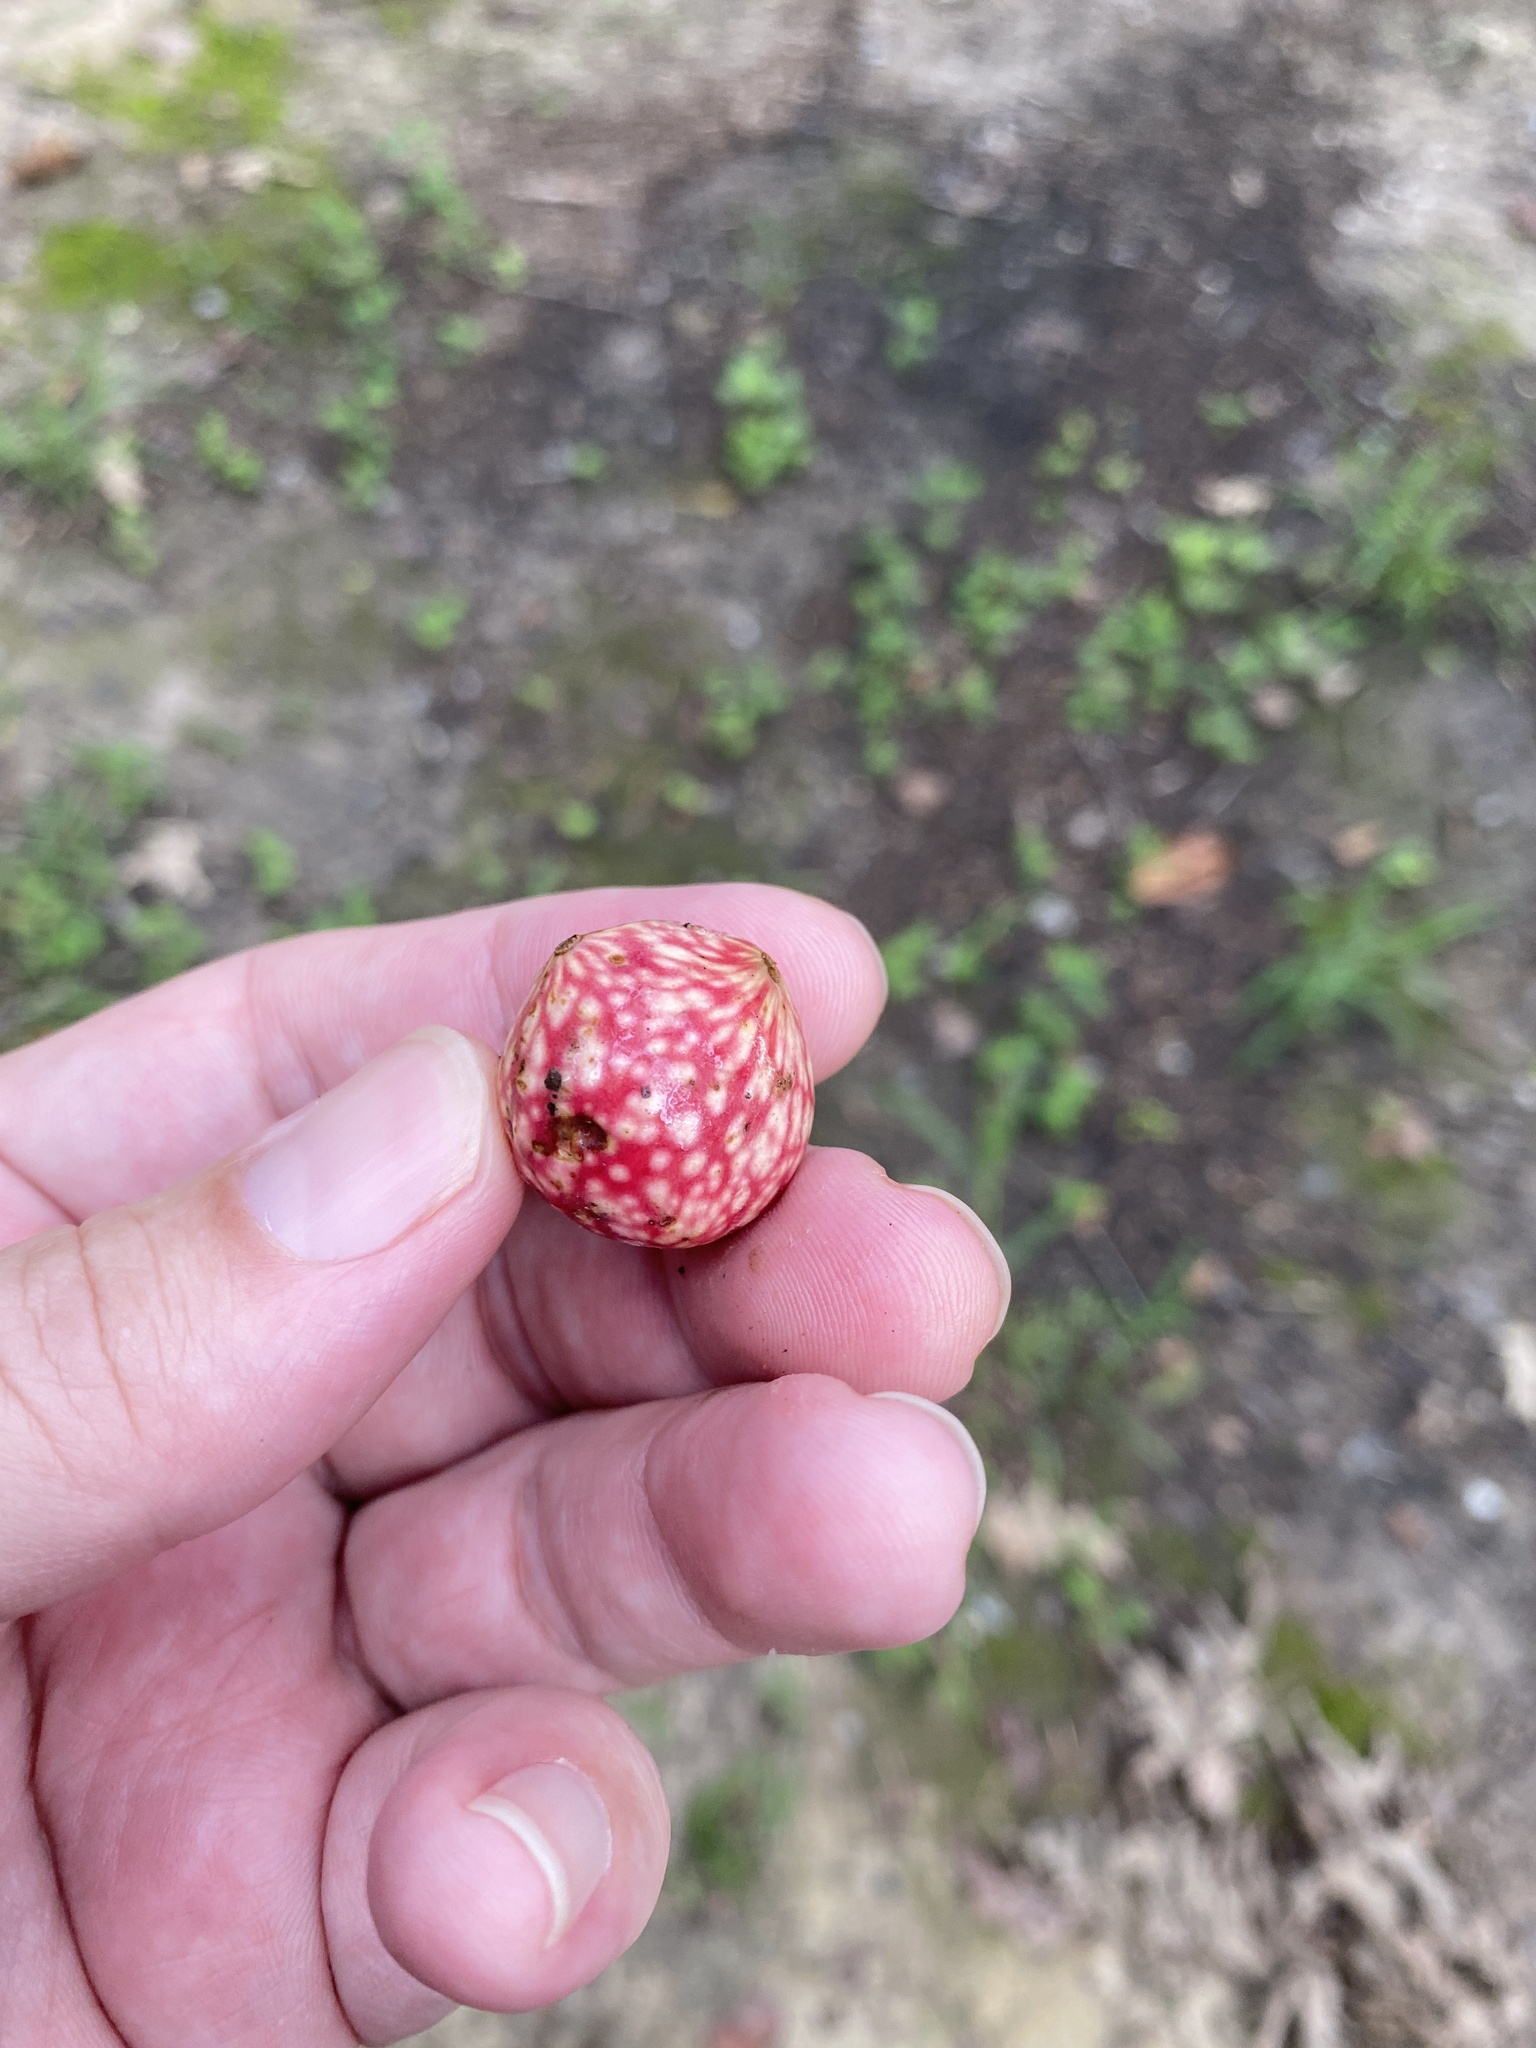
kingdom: Animalia
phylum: Arthropoda
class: Insecta
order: Hymenoptera
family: Cynipidae
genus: Amphibolips
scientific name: Amphibolips
